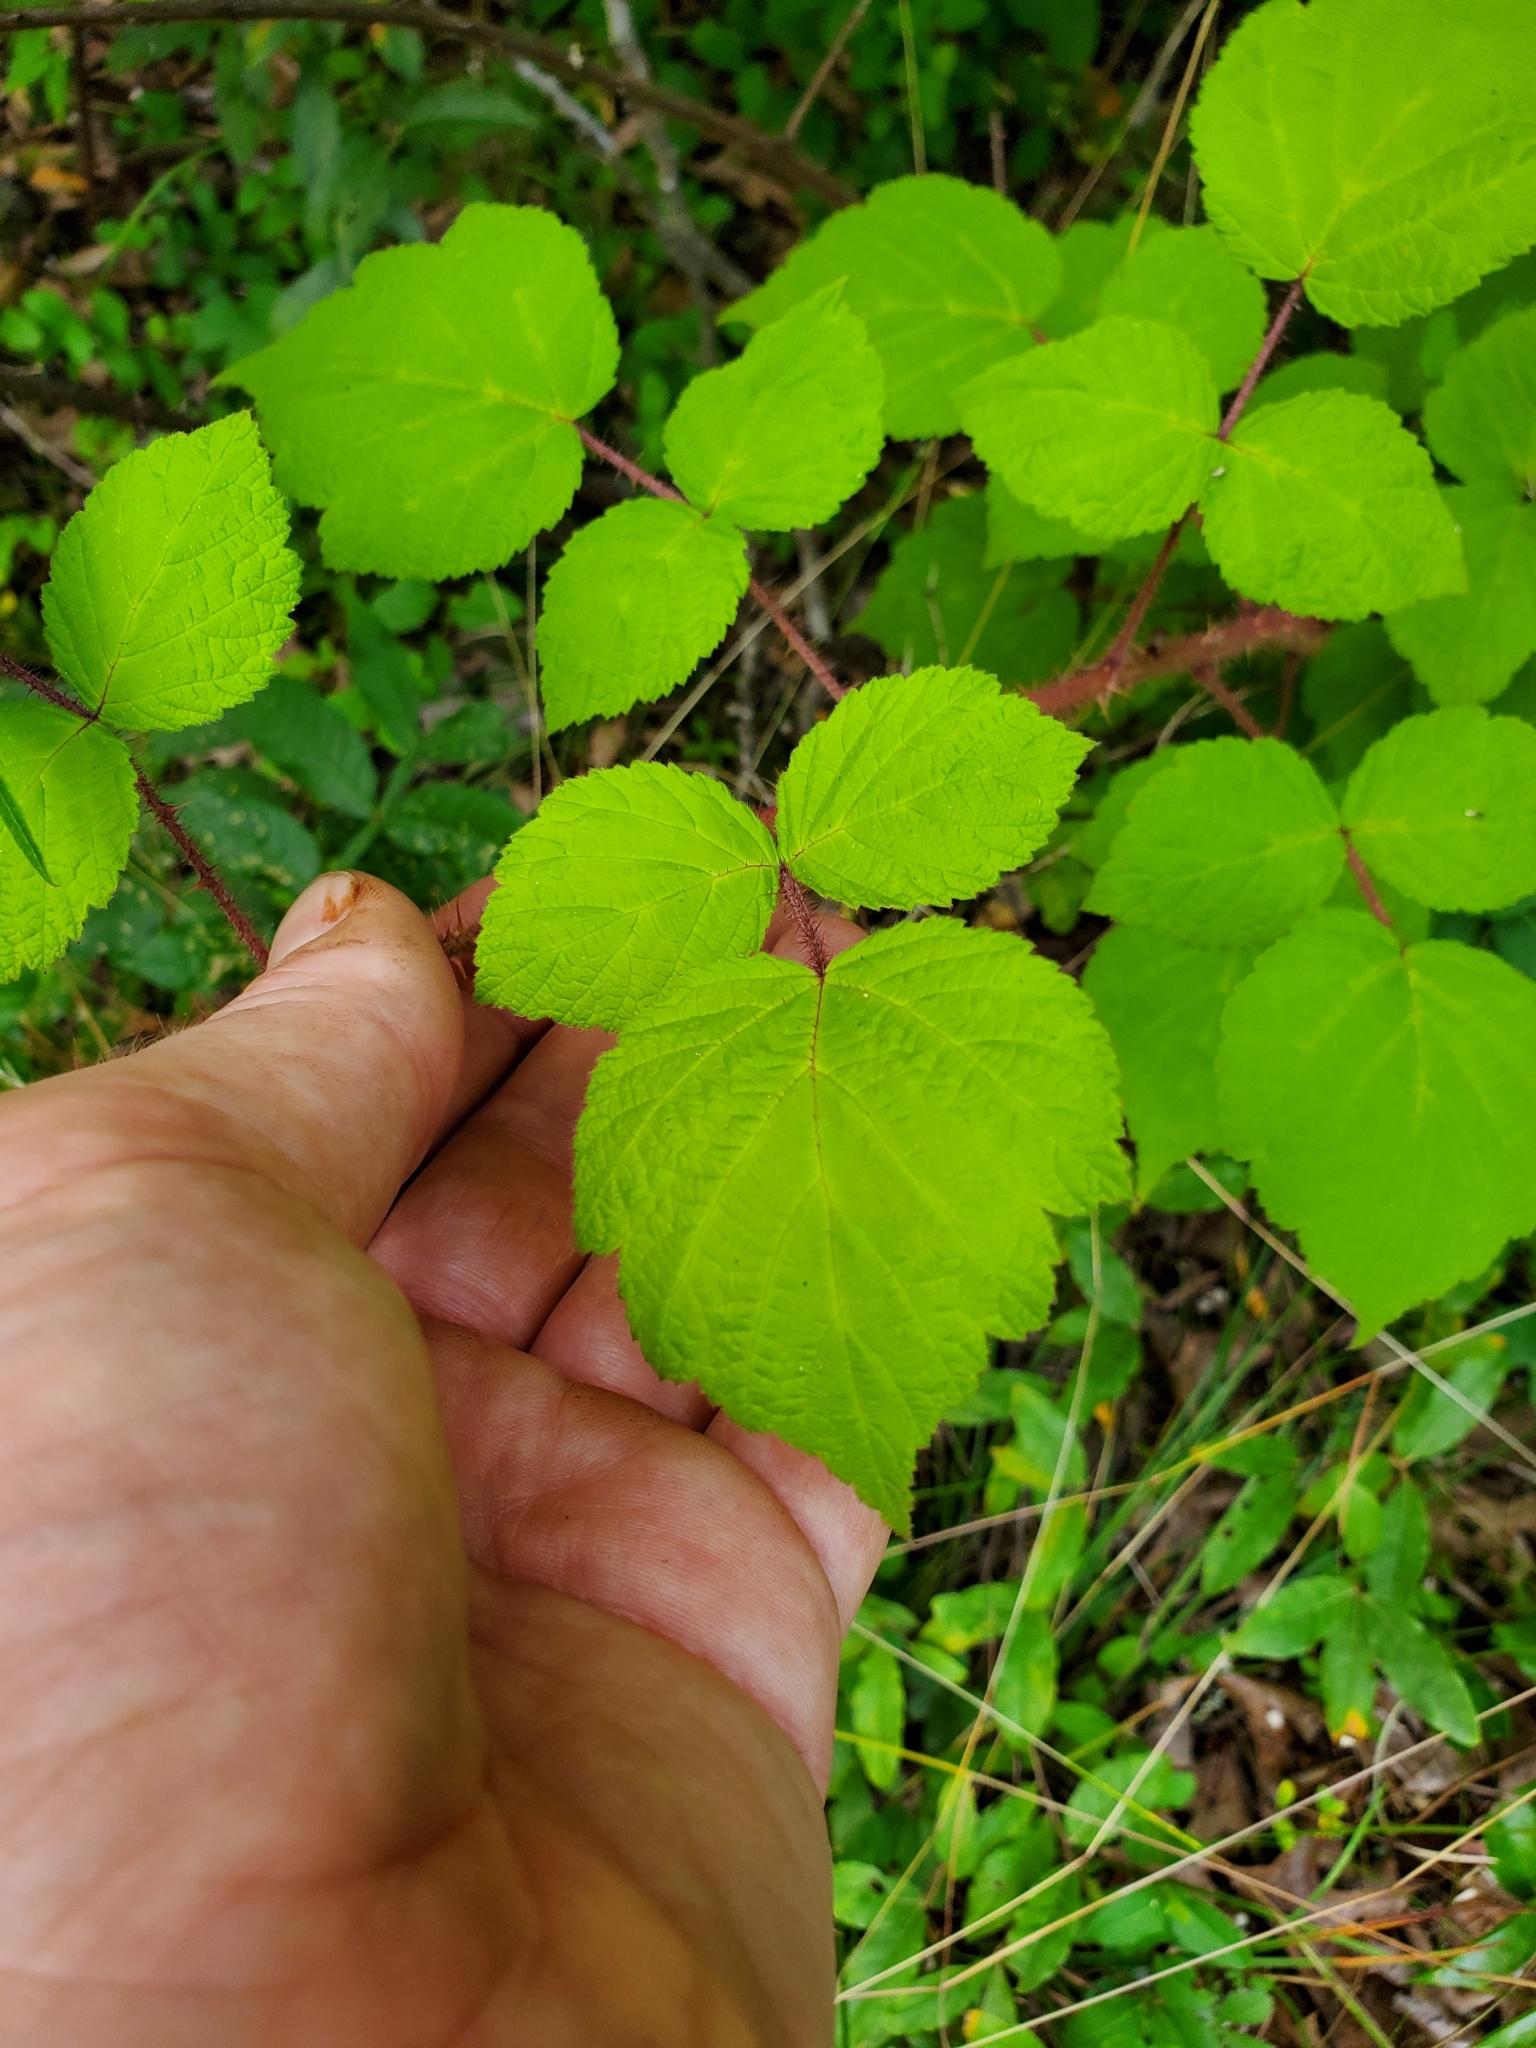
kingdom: Plantae
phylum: Tracheophyta
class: Magnoliopsida
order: Rosales
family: Rosaceae
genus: Rubus
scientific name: Rubus phoenicolasius
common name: Japanese wineberry
